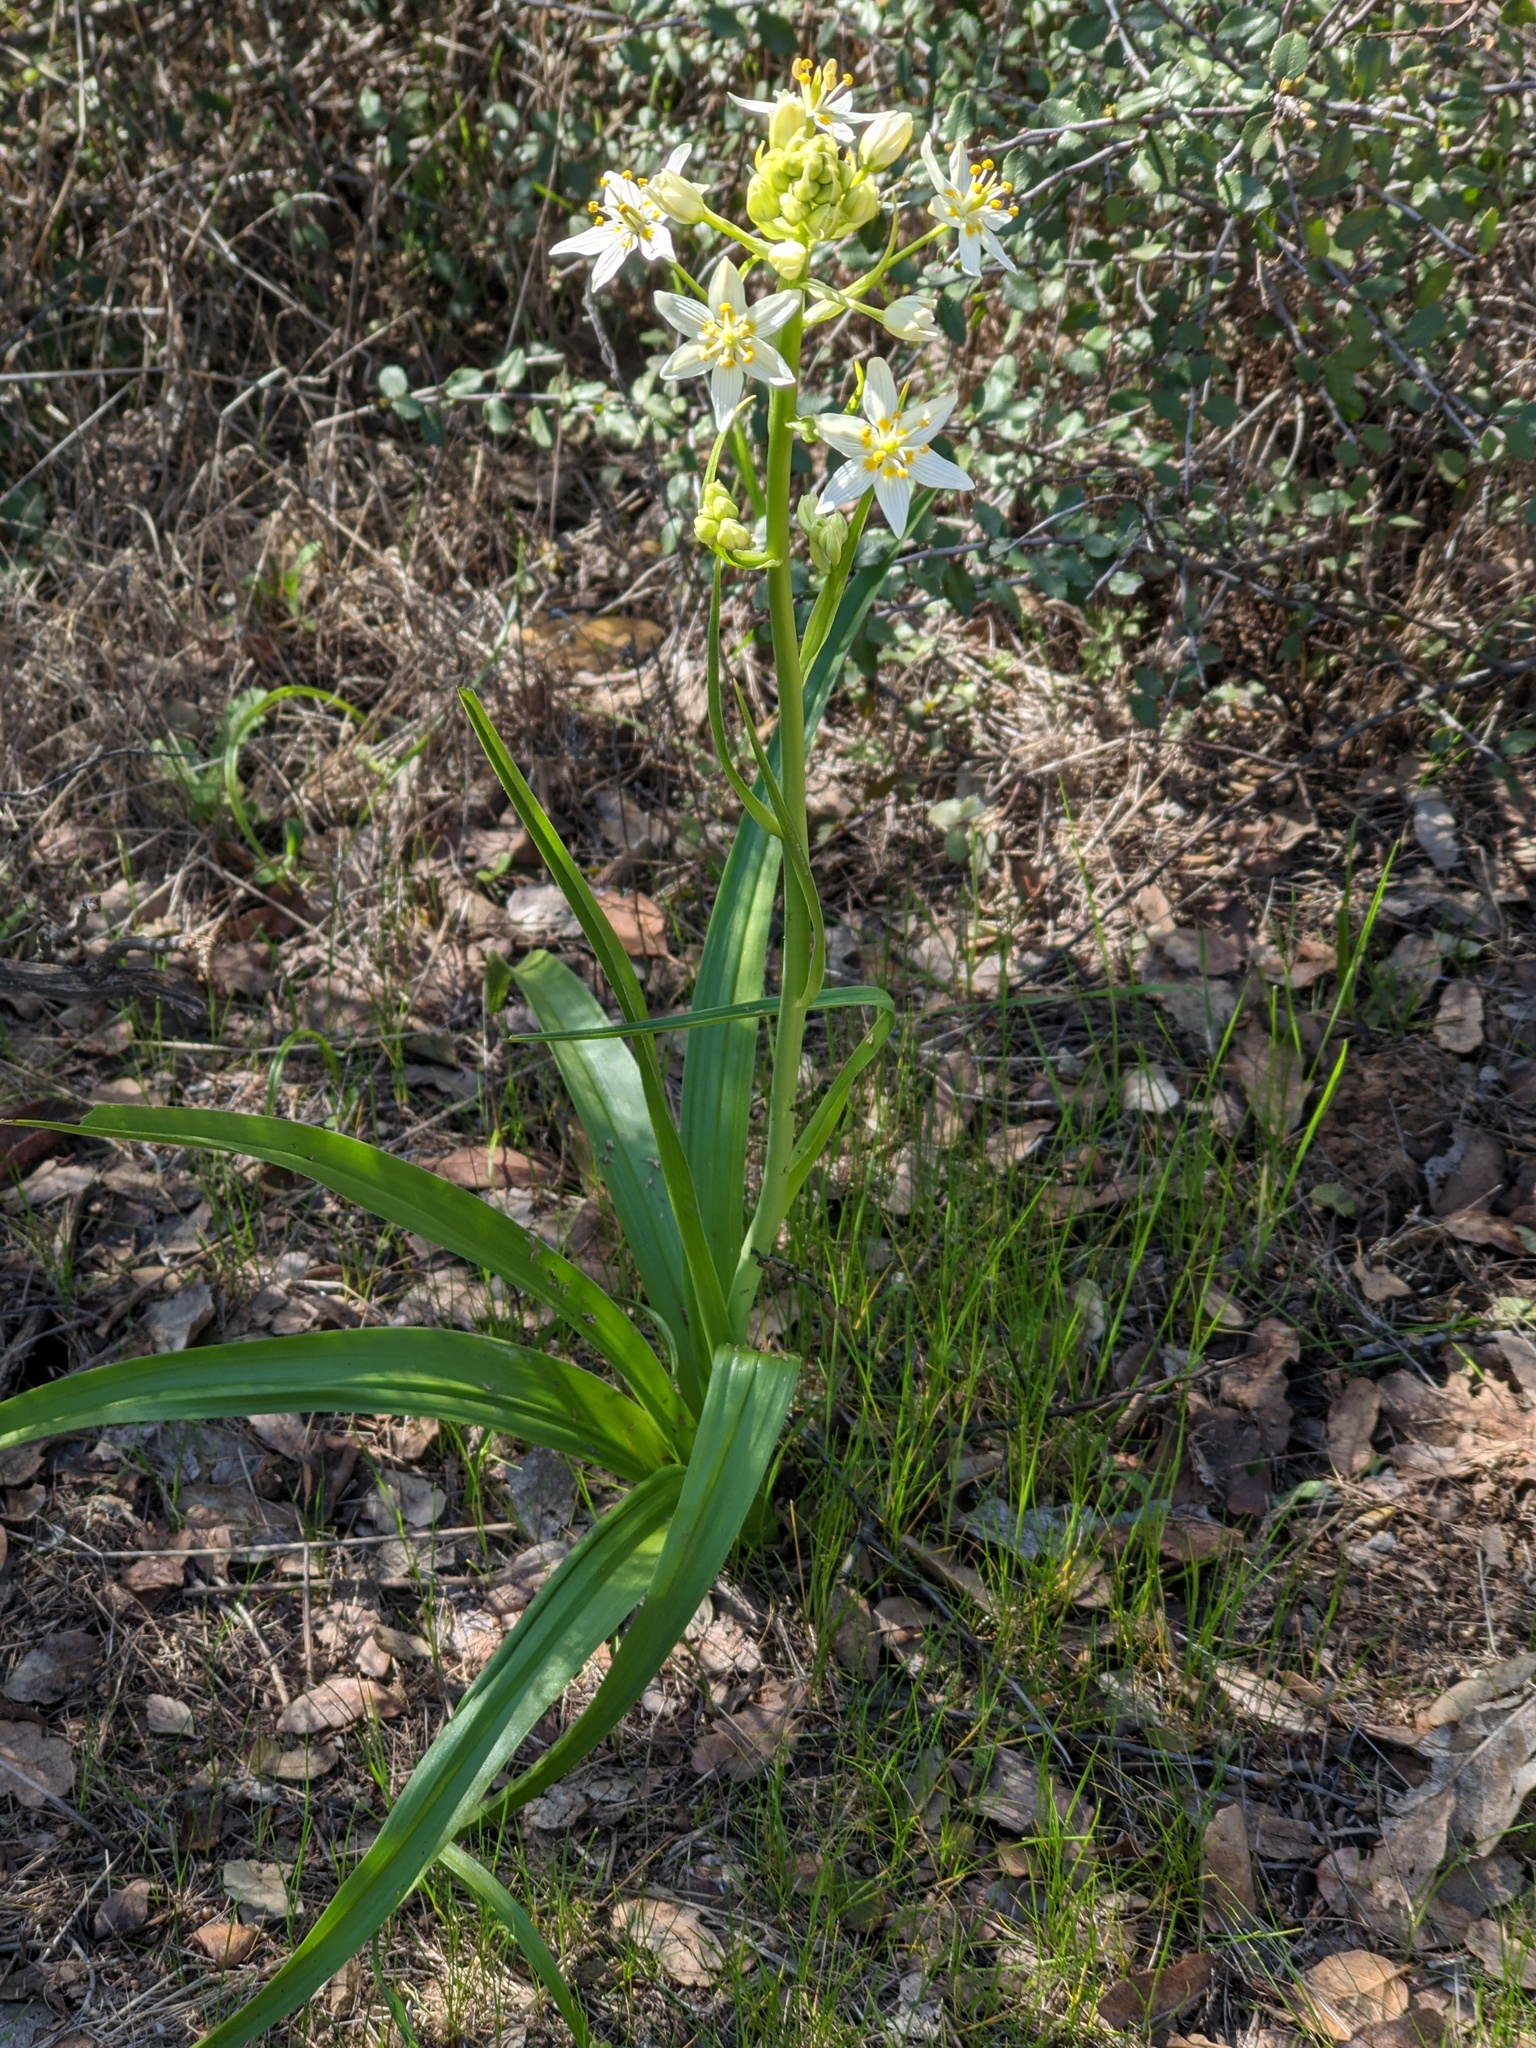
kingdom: Plantae
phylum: Tracheophyta
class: Liliopsida
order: Liliales
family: Melanthiaceae
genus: Toxicoscordion
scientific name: Toxicoscordion fremontii
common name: Fremont's death camas
